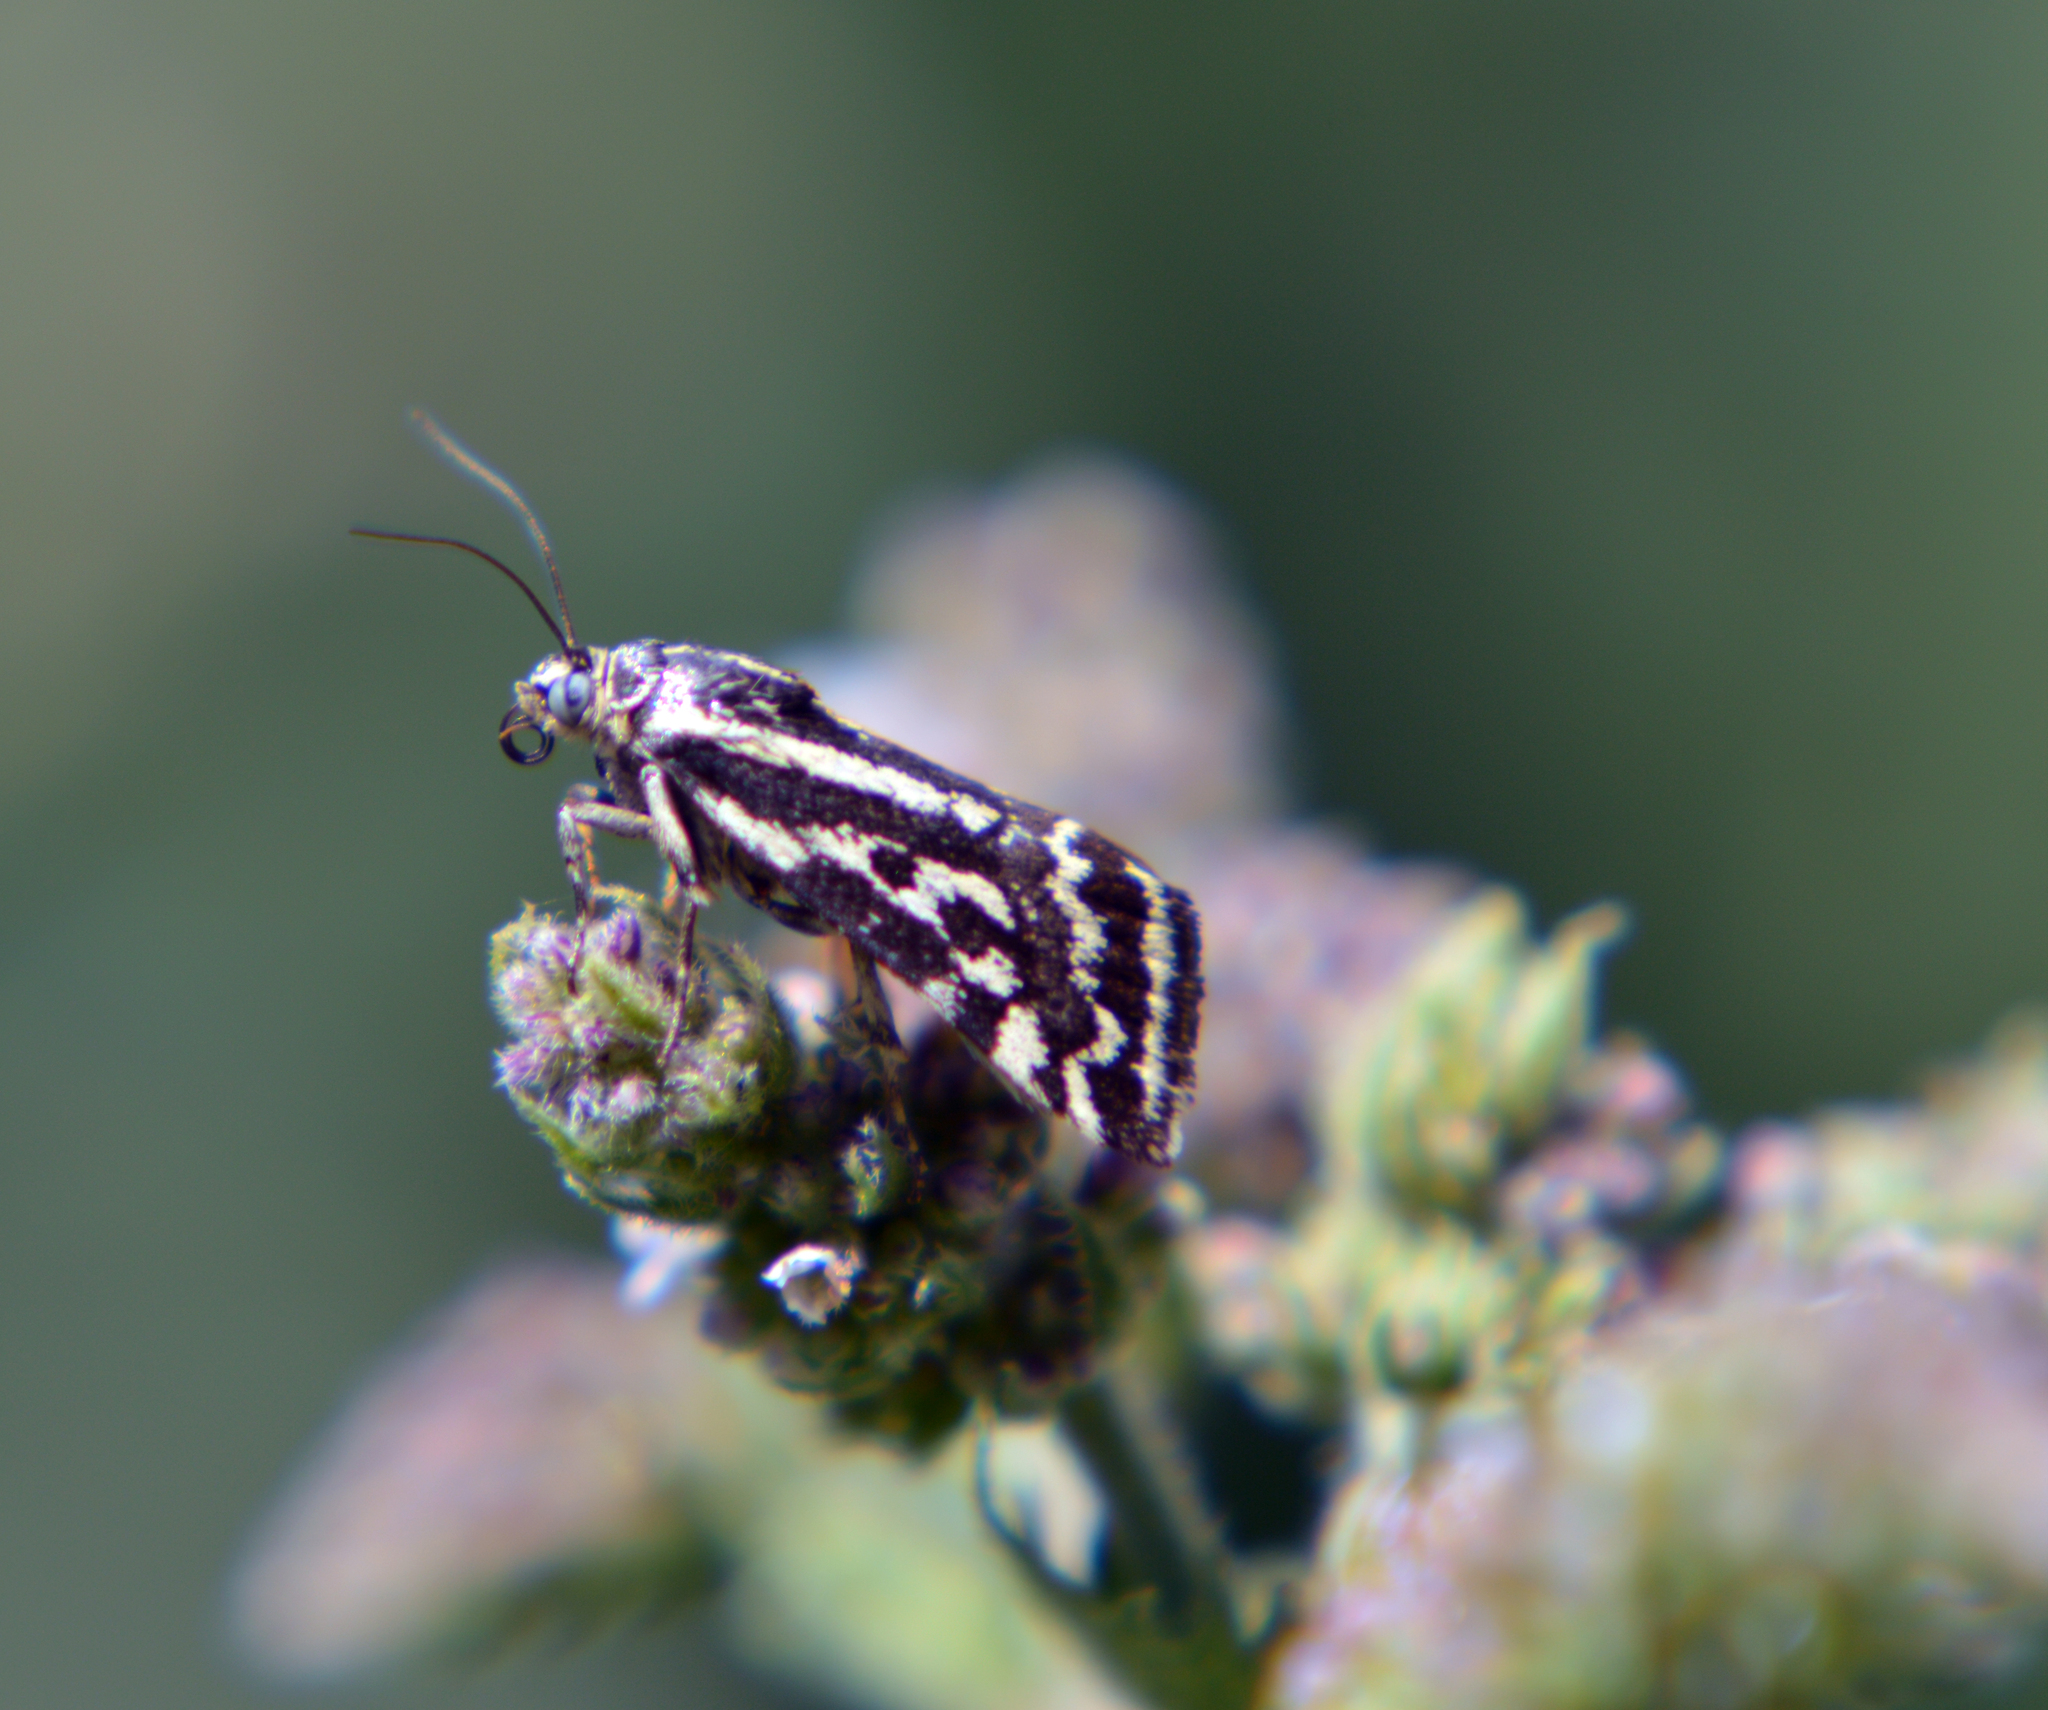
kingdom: Animalia
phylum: Arthropoda
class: Insecta
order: Lepidoptera
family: Noctuidae
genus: Acontia
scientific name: Acontia trabealis
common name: Spotted sulphur
